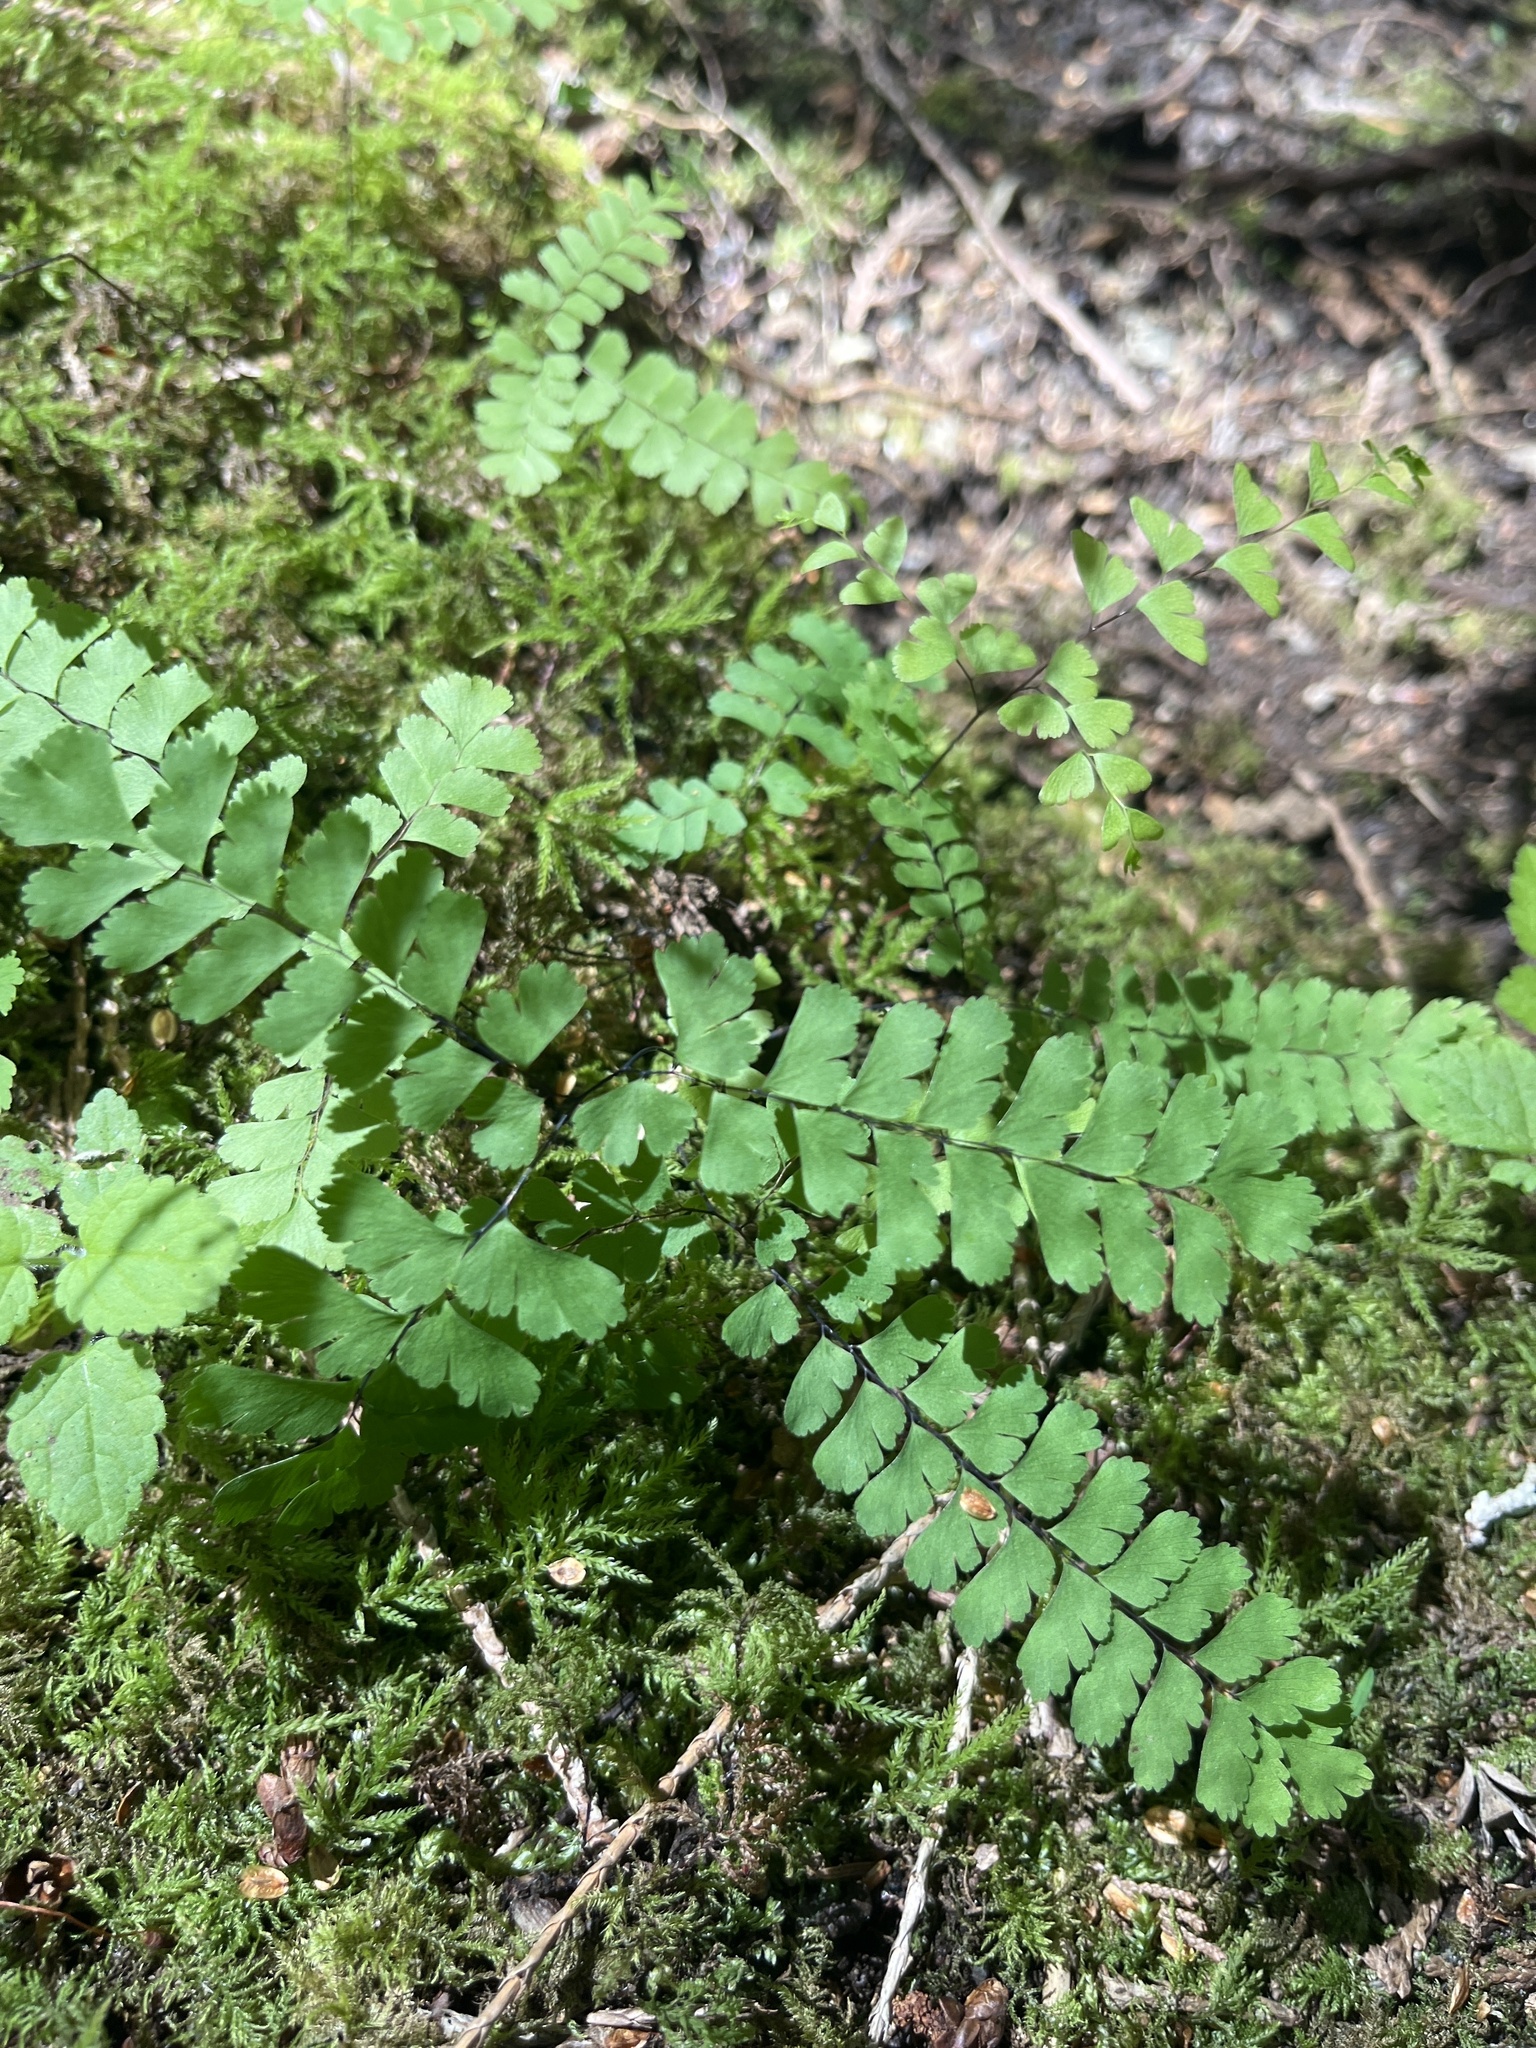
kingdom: Plantae
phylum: Tracheophyta
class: Polypodiopsida
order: Polypodiales
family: Pteridaceae
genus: Adiantum
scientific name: Adiantum aleuticum
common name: Aleutian maidenhair fern
